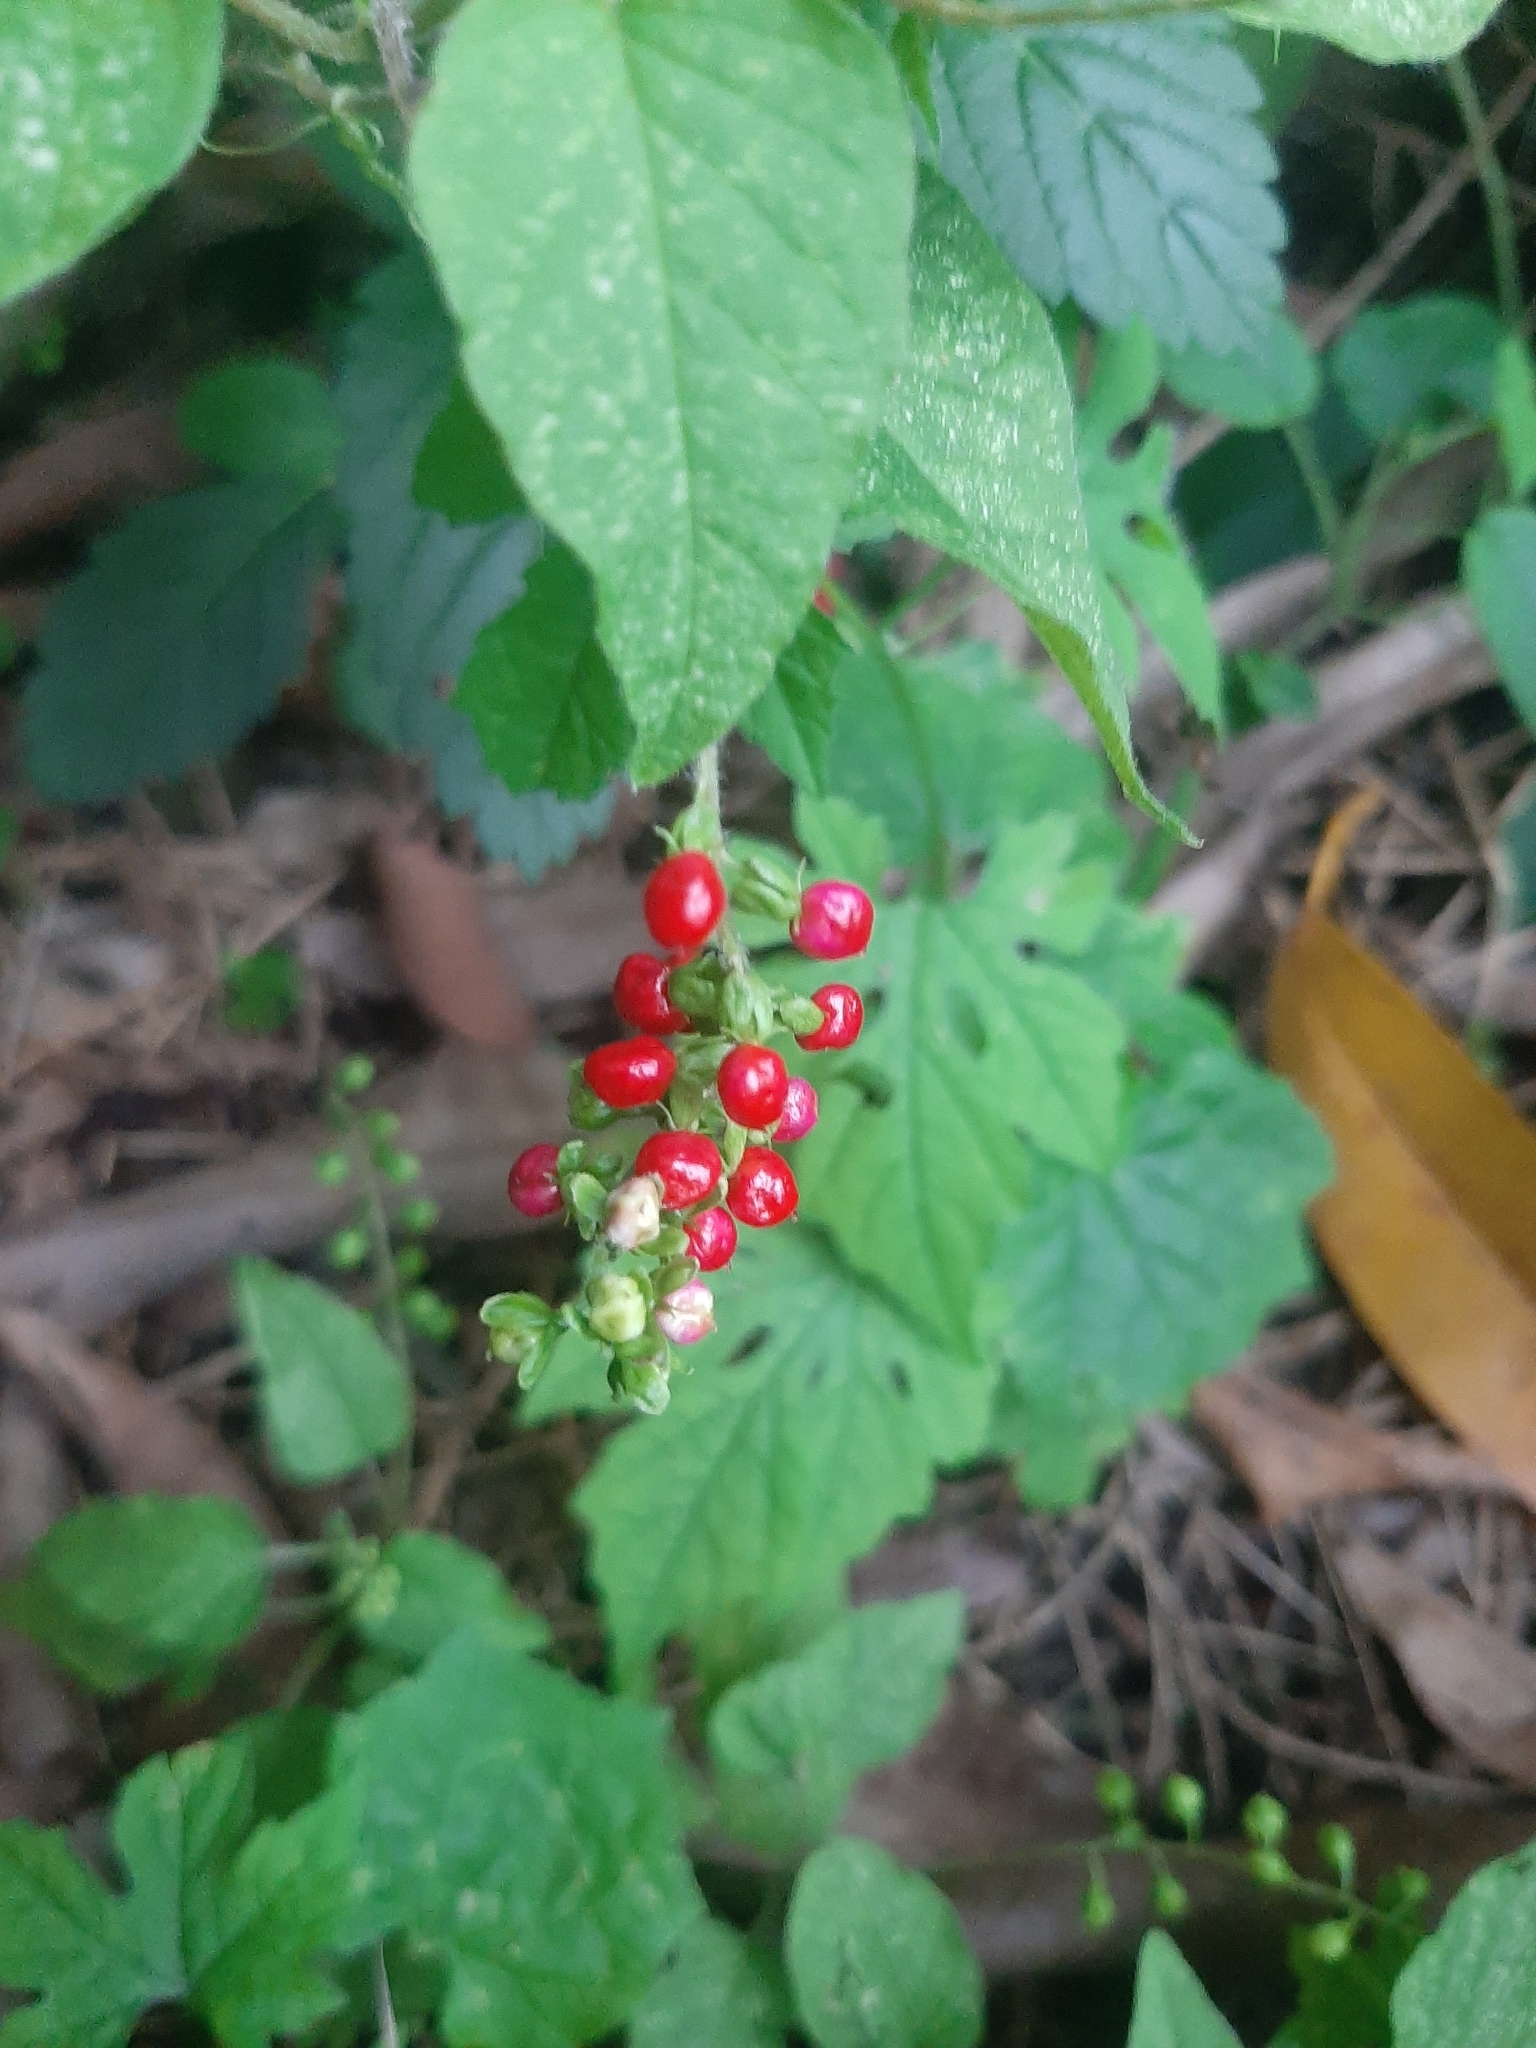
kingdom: Plantae
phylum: Tracheophyta
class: Magnoliopsida
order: Caryophyllales
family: Phytolaccaceae
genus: Rivina
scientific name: Rivina humilis
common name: Rougeplant
